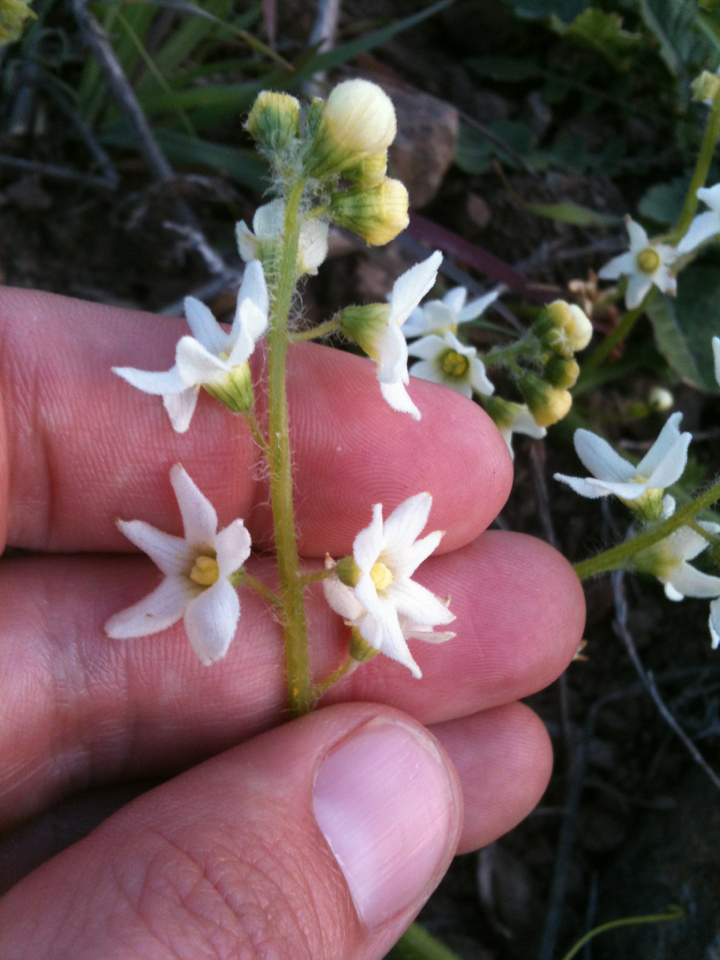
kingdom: Plantae
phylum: Tracheophyta
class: Magnoliopsida
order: Cucurbitales
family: Cucurbitaceae
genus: Marah
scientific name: Marah oregana
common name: Coastal manroot
